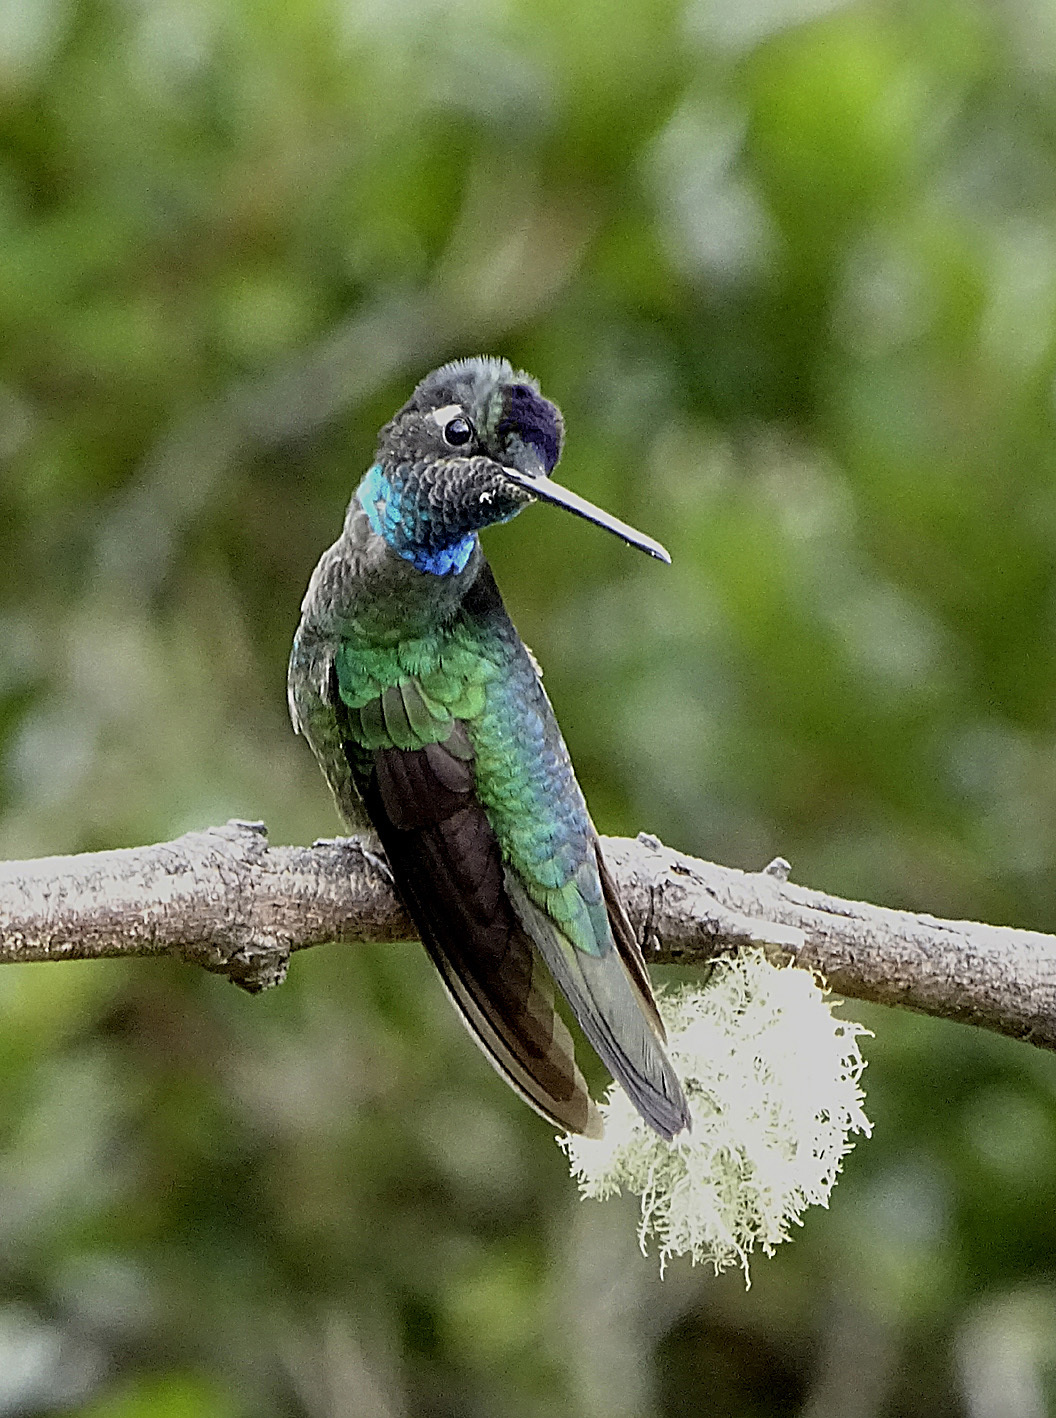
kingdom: Animalia
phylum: Chordata
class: Aves
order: Apodiformes
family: Trochilidae
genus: Eugenes
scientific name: Eugenes spectabilis
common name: Talamanca hummingbird
